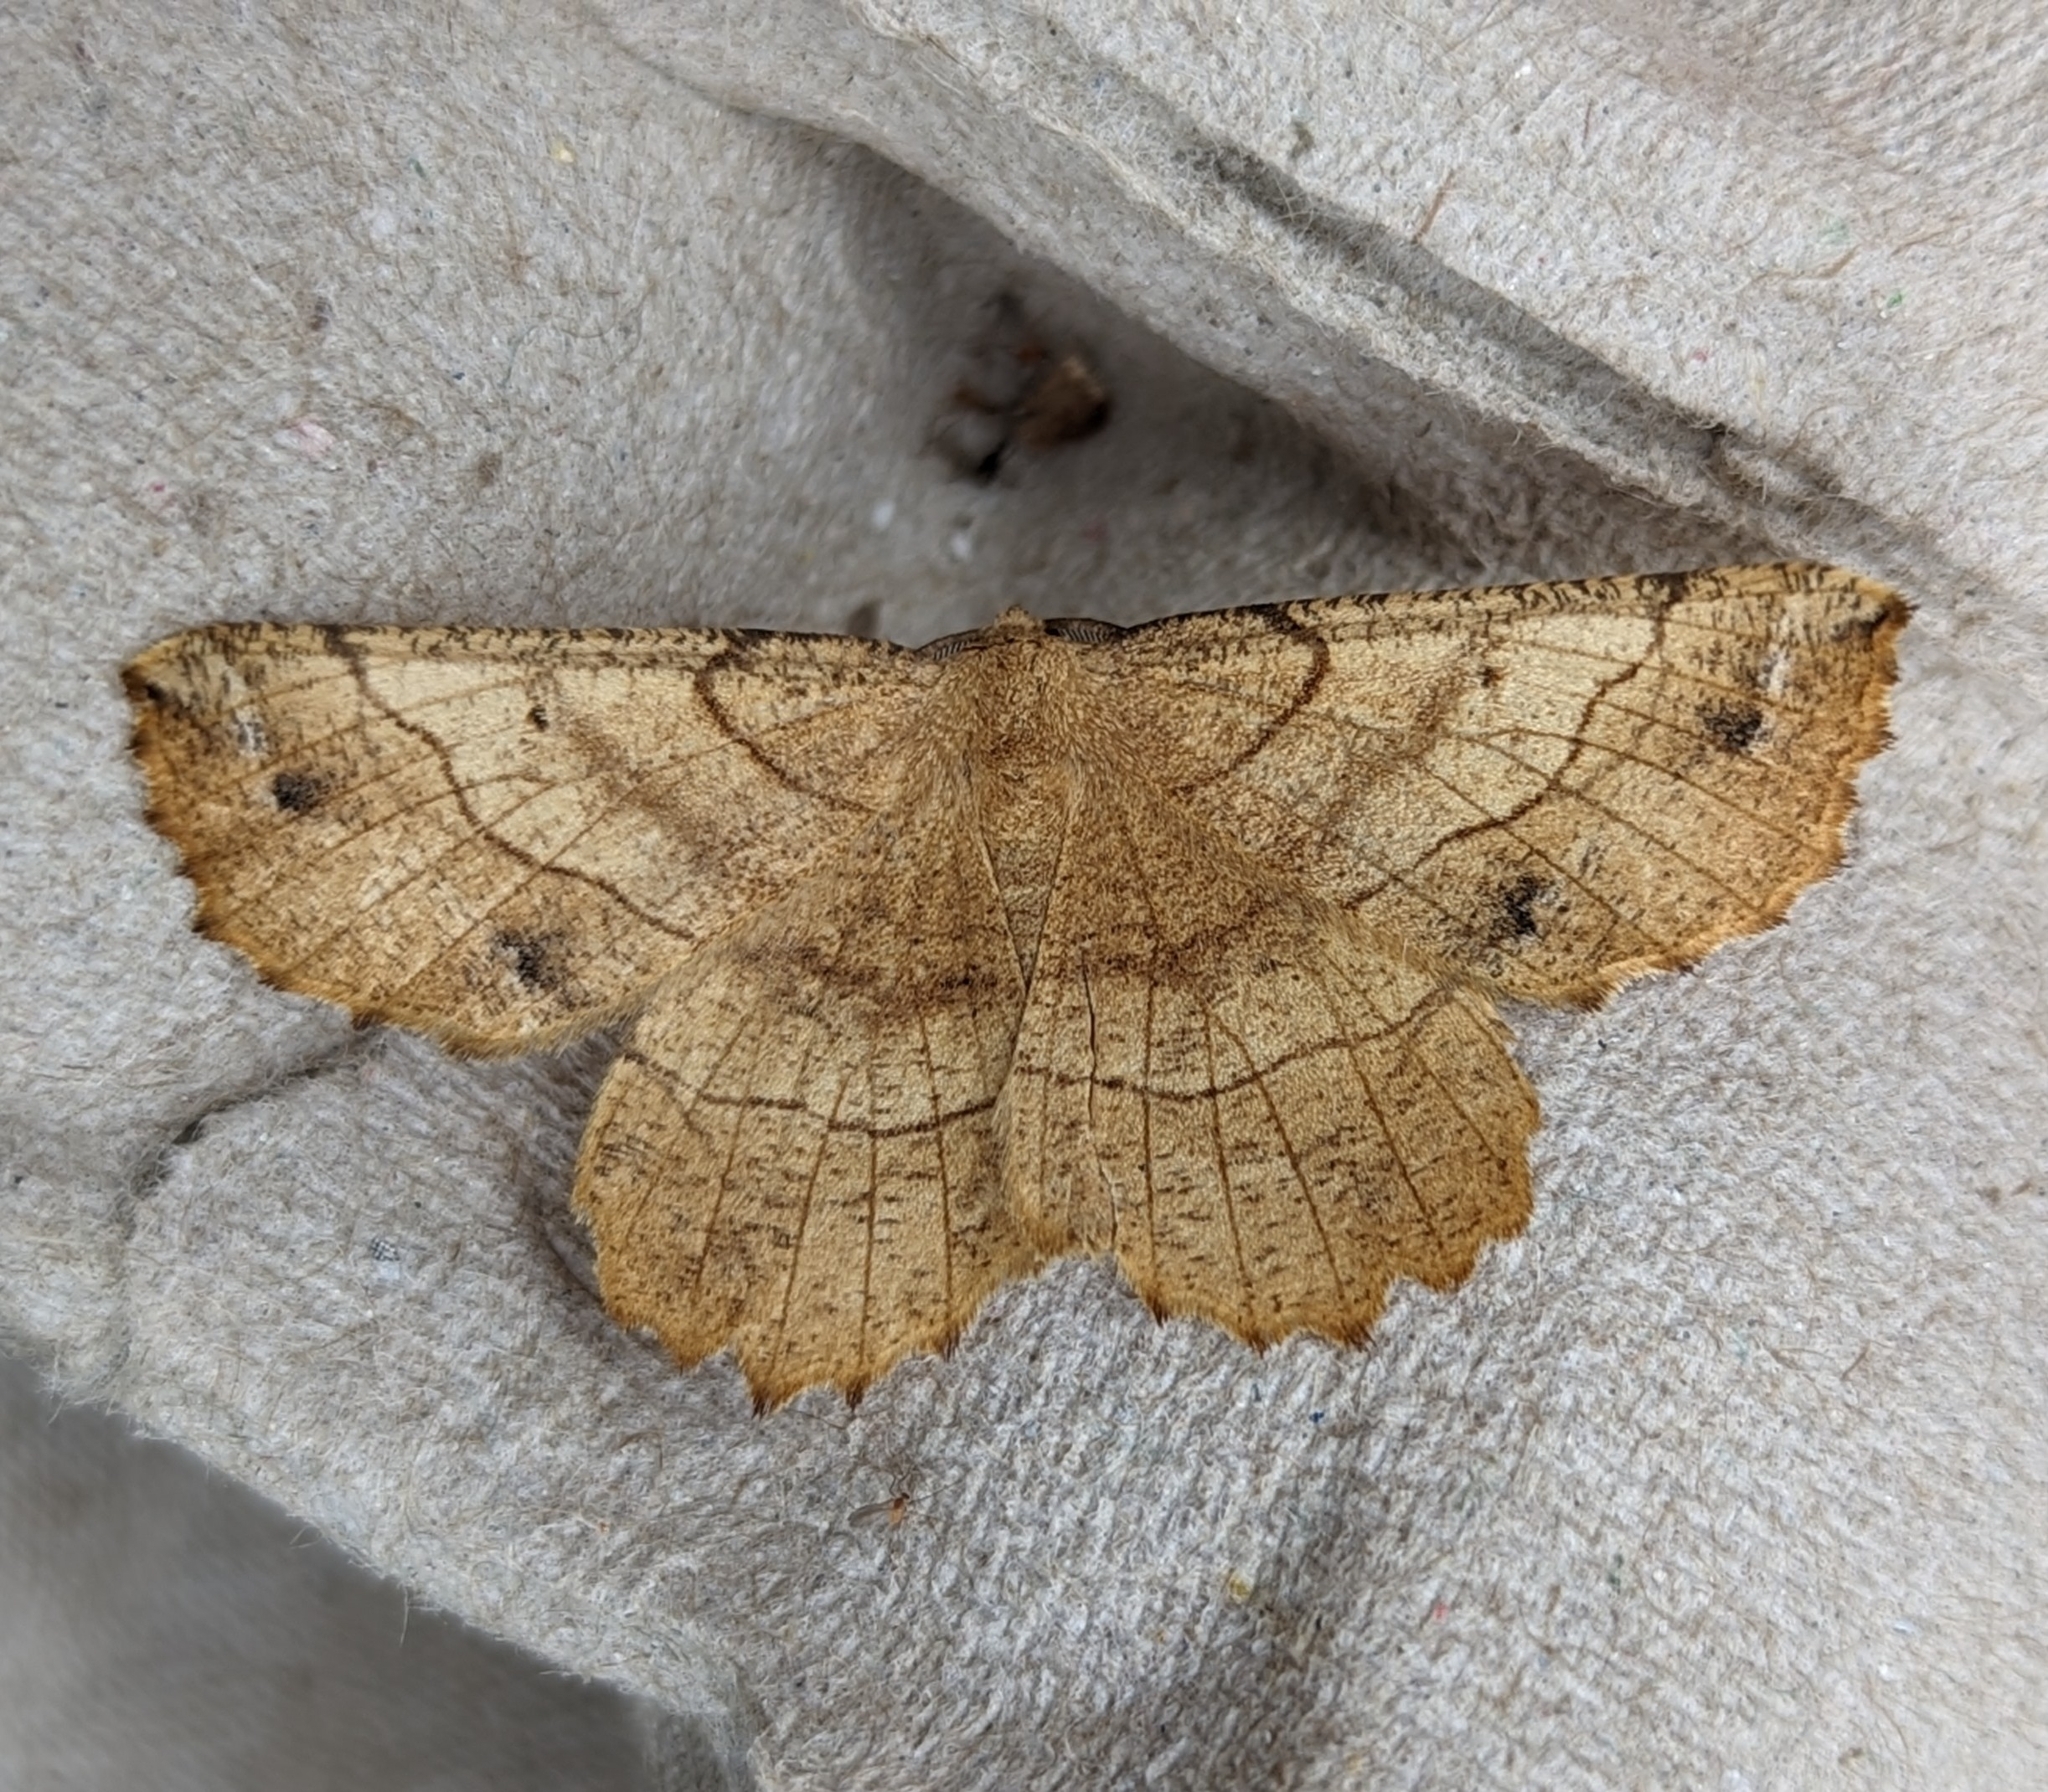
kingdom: Animalia
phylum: Arthropoda
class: Insecta
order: Lepidoptera
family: Geometridae
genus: Euchlaena
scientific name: Euchlaena johnsonaria
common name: Johnson's euchlaena
